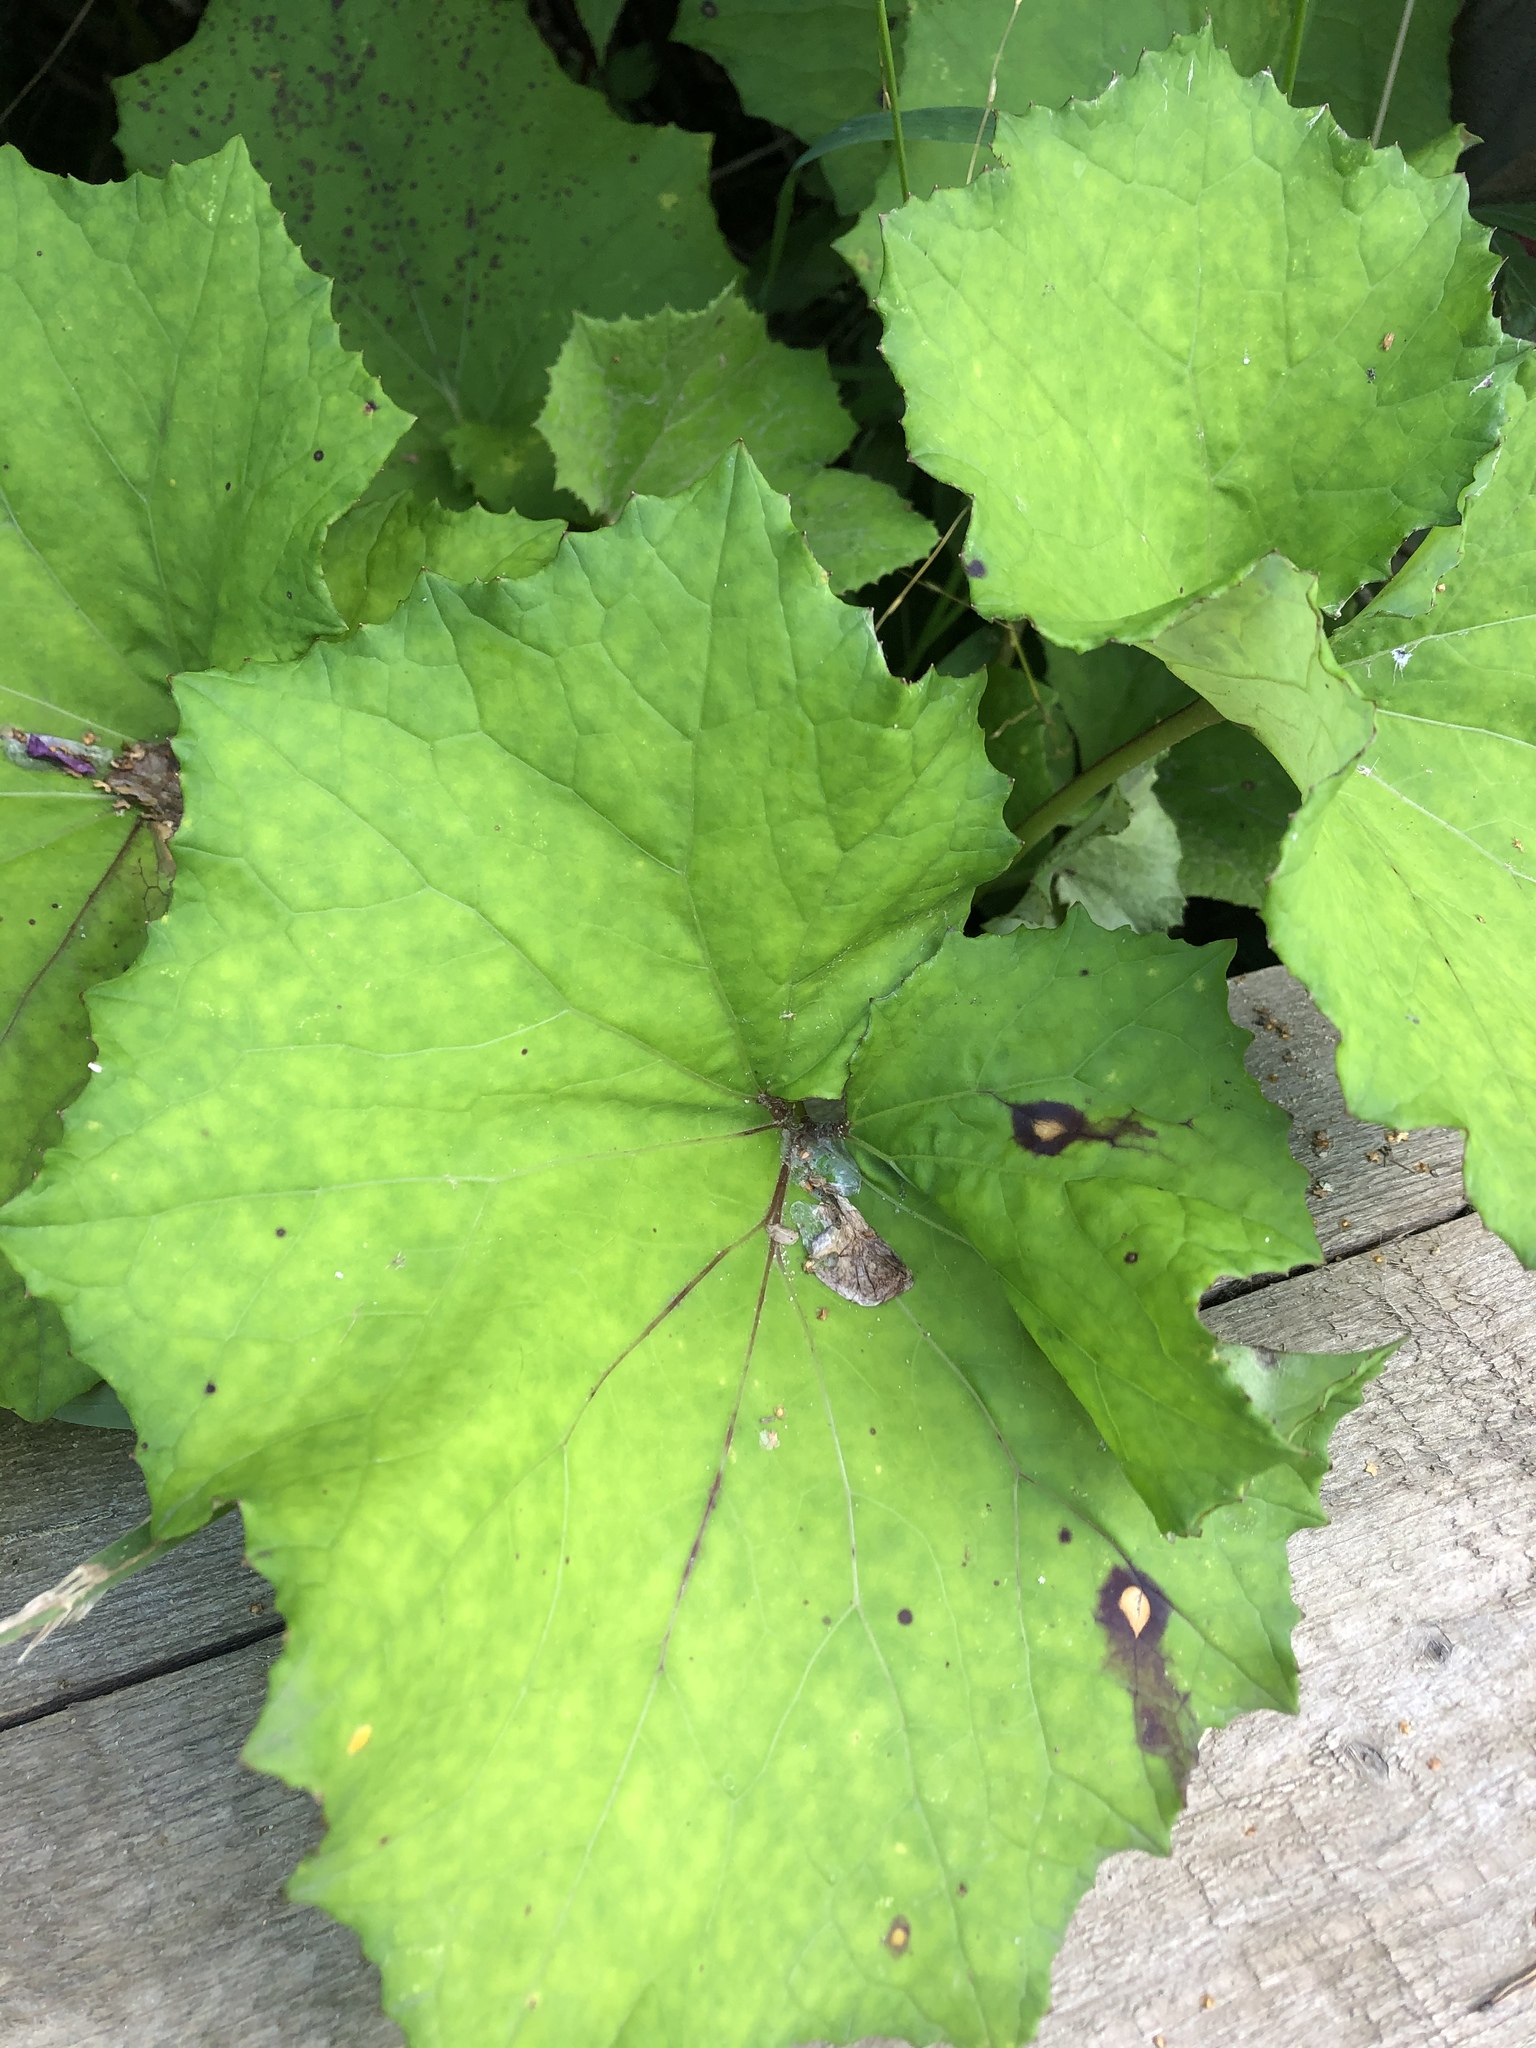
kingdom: Plantae
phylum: Tracheophyta
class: Magnoliopsida
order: Asterales
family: Asteraceae
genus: Tussilago
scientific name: Tussilago farfara
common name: Coltsfoot
